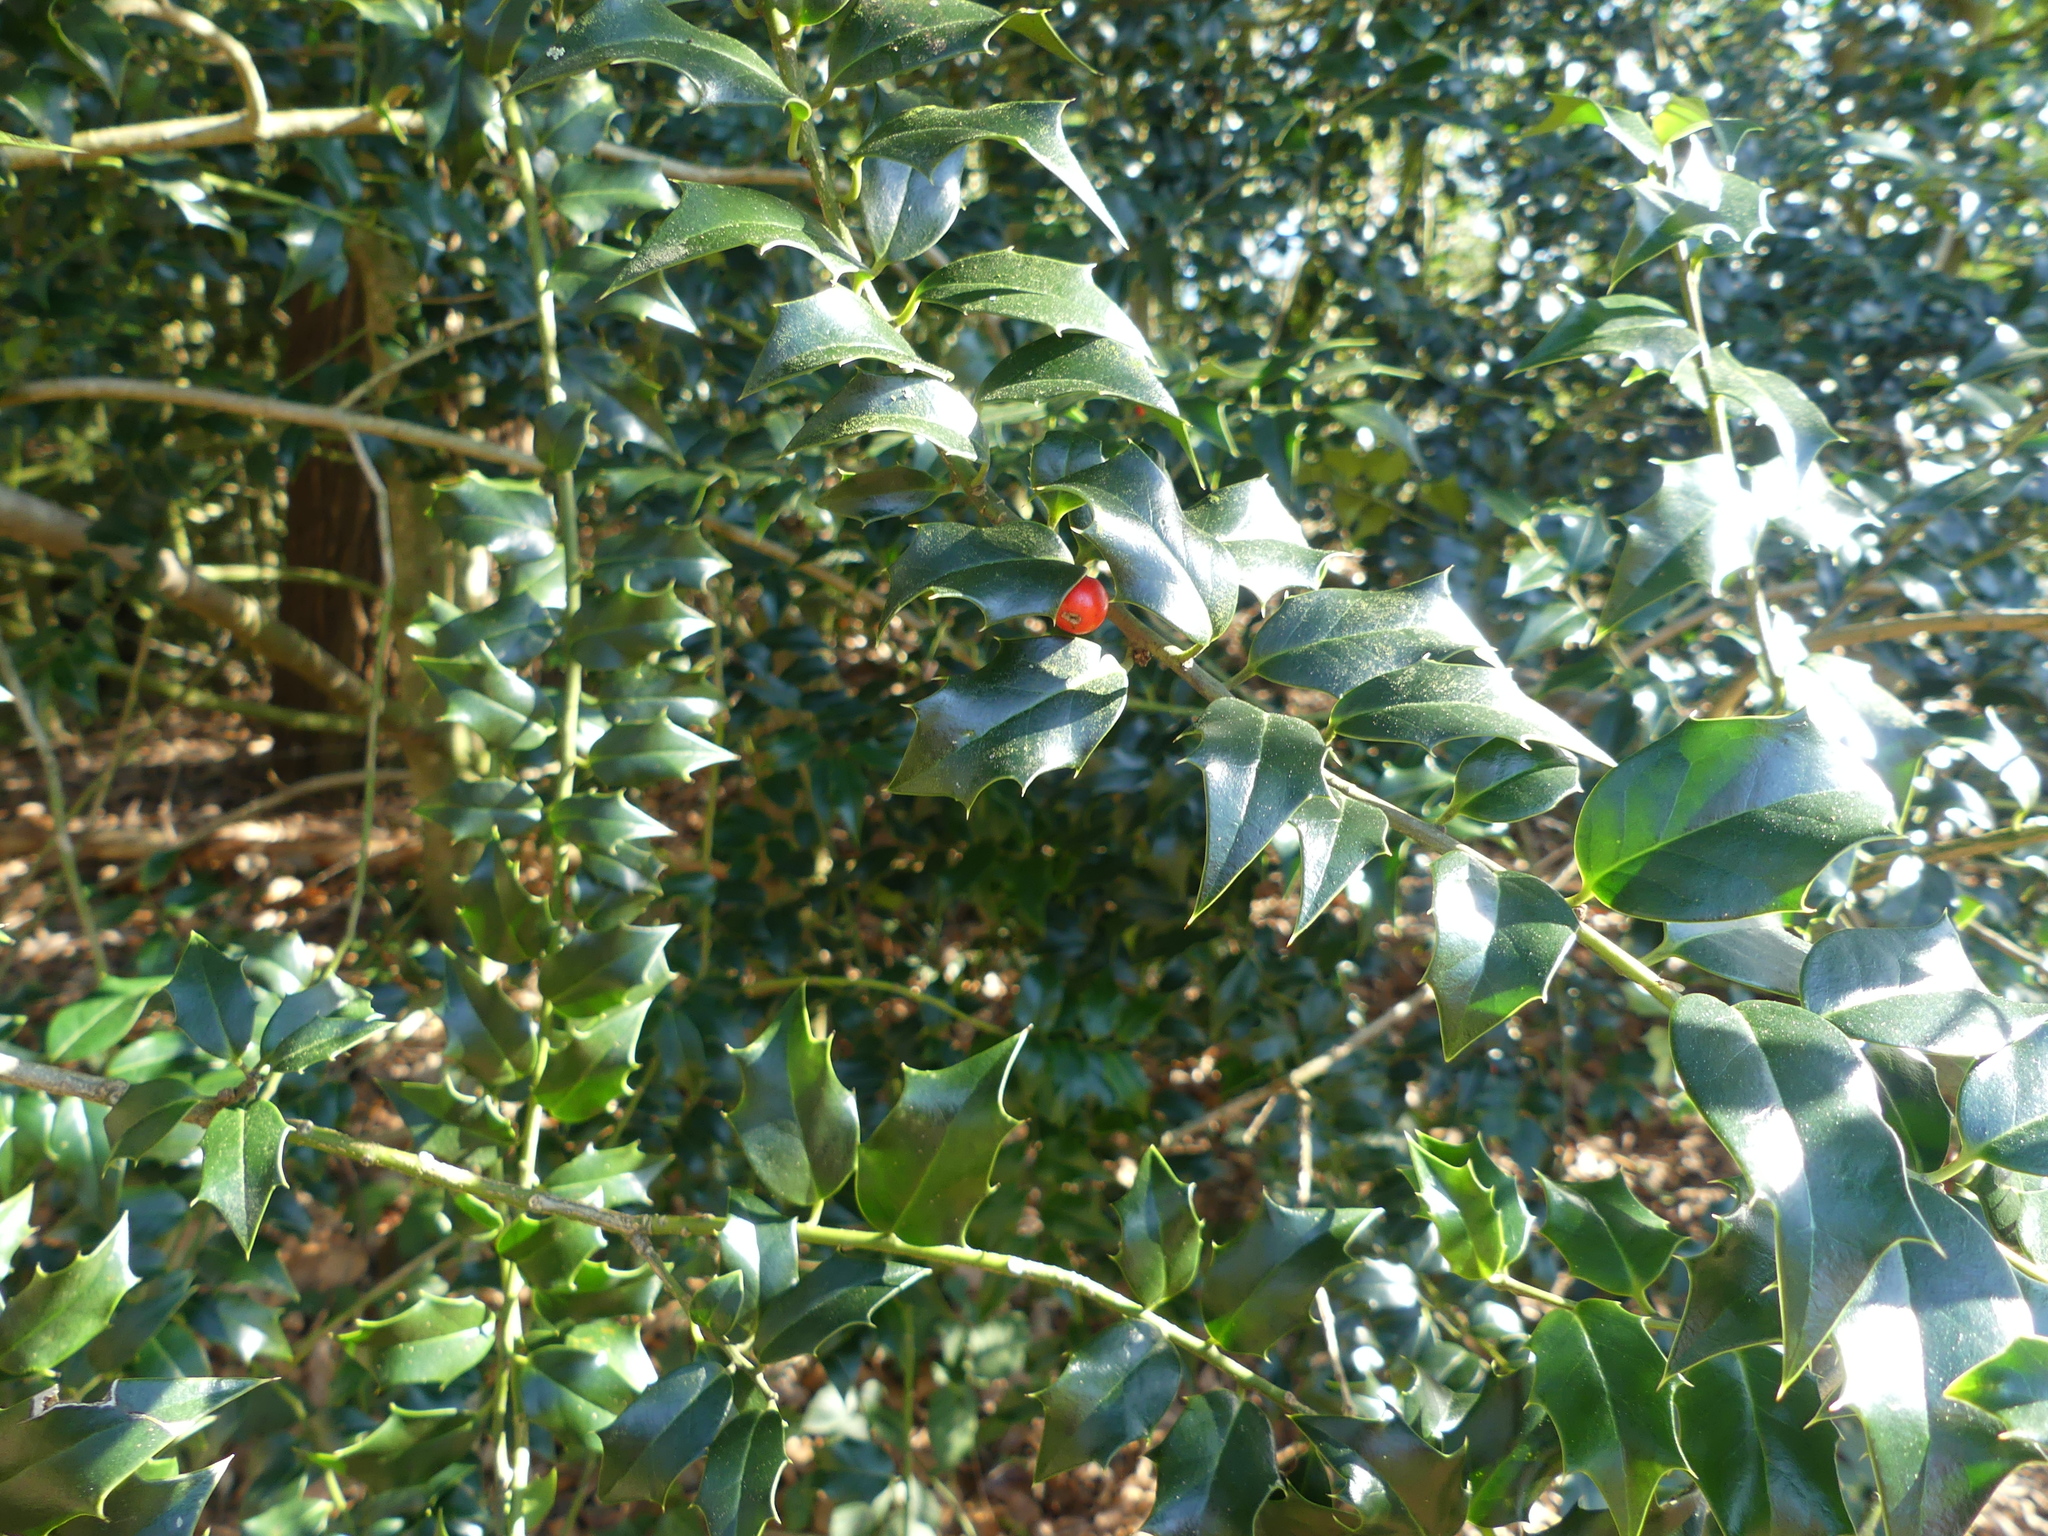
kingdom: Plantae
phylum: Tracheophyta
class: Magnoliopsida
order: Aquifoliales
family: Aquifoliaceae
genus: Ilex
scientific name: Ilex aquifolium
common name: English holly
